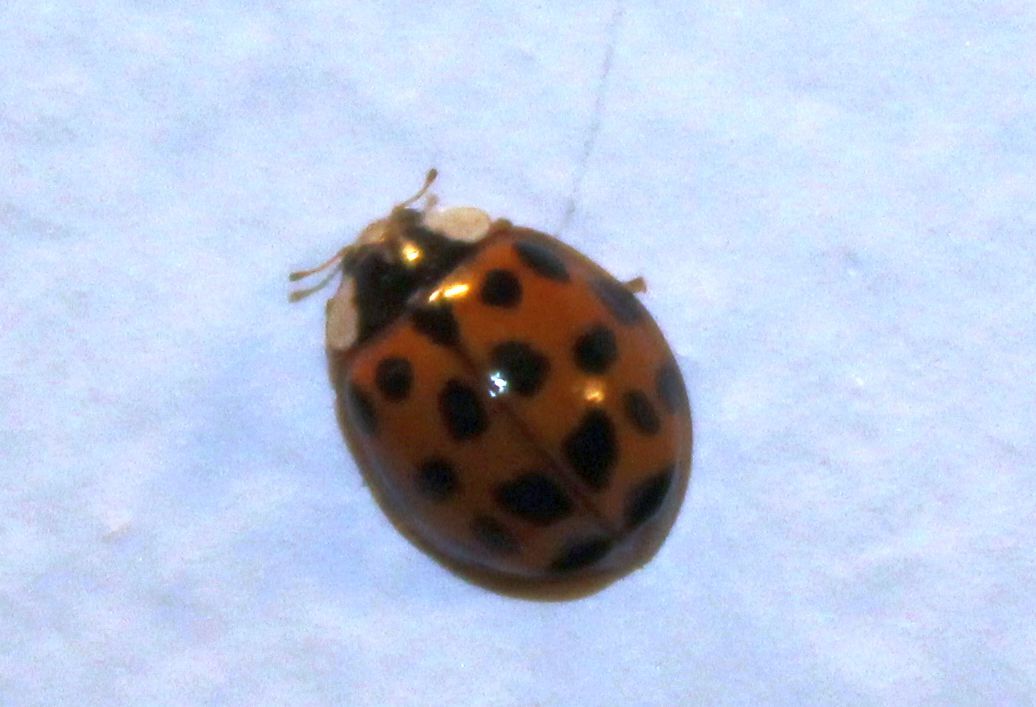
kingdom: Animalia
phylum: Arthropoda
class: Insecta
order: Coleoptera
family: Coccinellidae
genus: Harmonia
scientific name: Harmonia axyridis
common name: Harlequin ladybird
